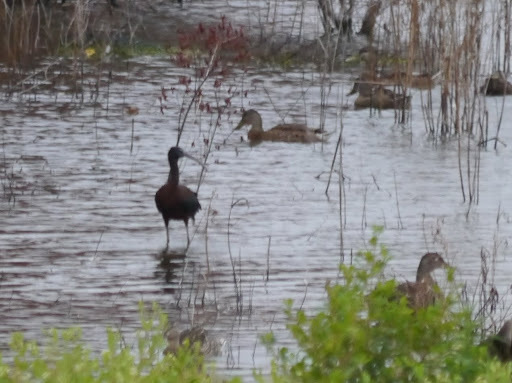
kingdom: Animalia
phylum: Chordata
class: Aves
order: Pelecaniformes
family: Threskiornithidae
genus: Plegadis
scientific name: Plegadis falcinellus
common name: Glossy ibis
